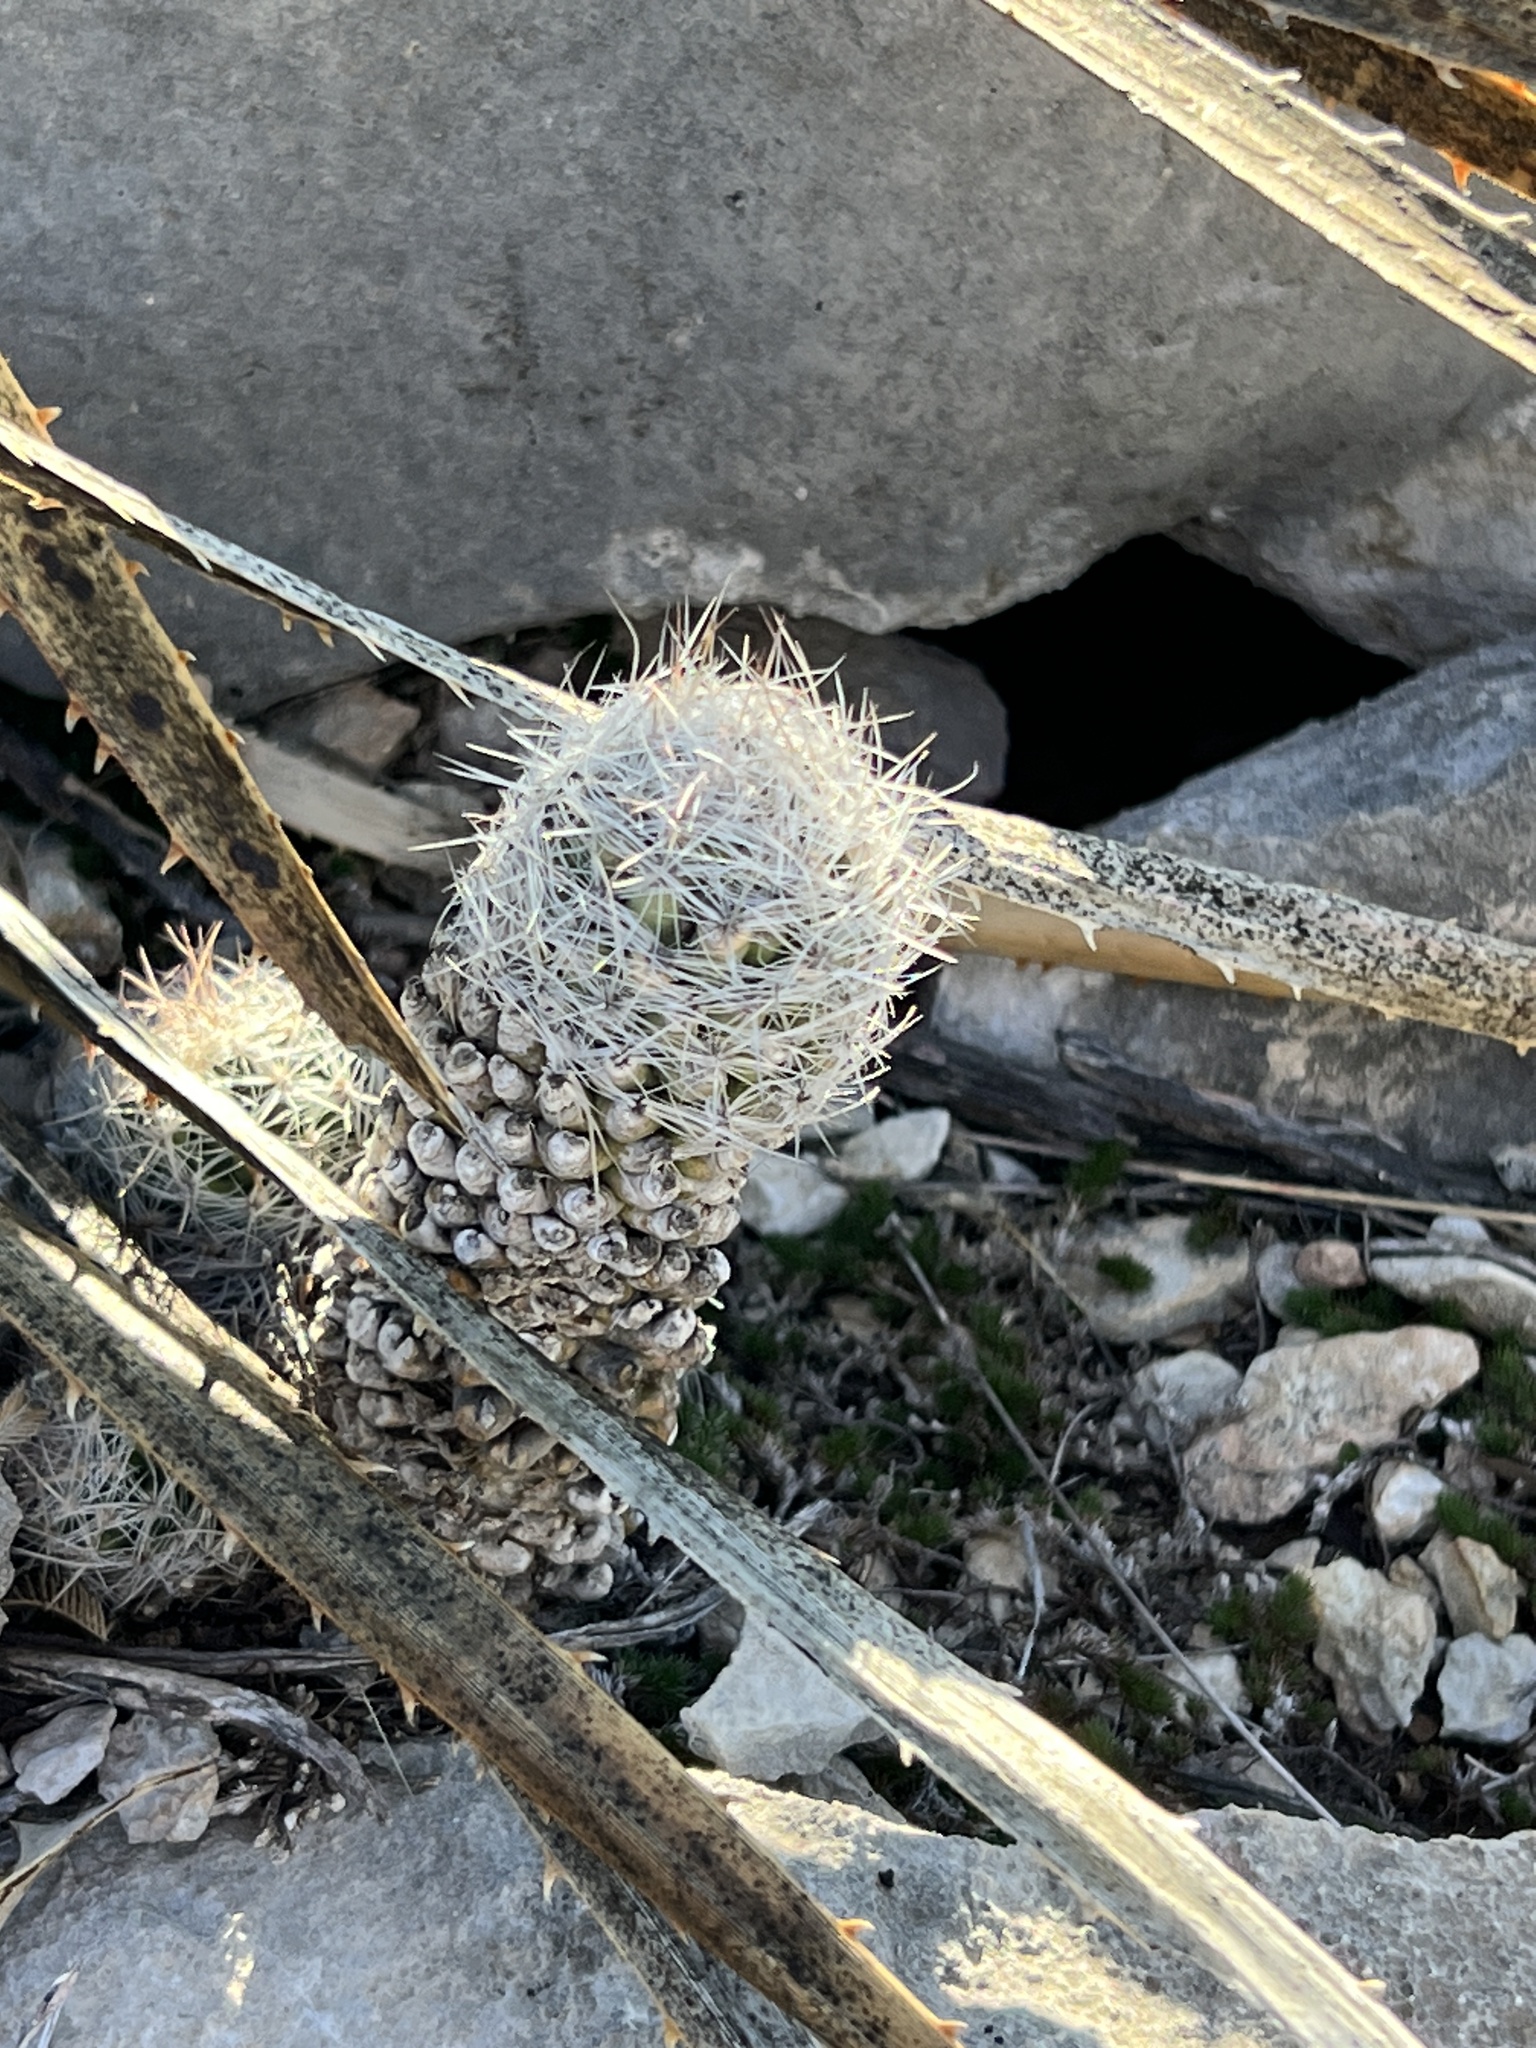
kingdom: Plantae
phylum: Tracheophyta
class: Magnoliopsida
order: Caryophyllales
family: Cactaceae
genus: Pelecyphora
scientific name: Pelecyphora tuberculosa
